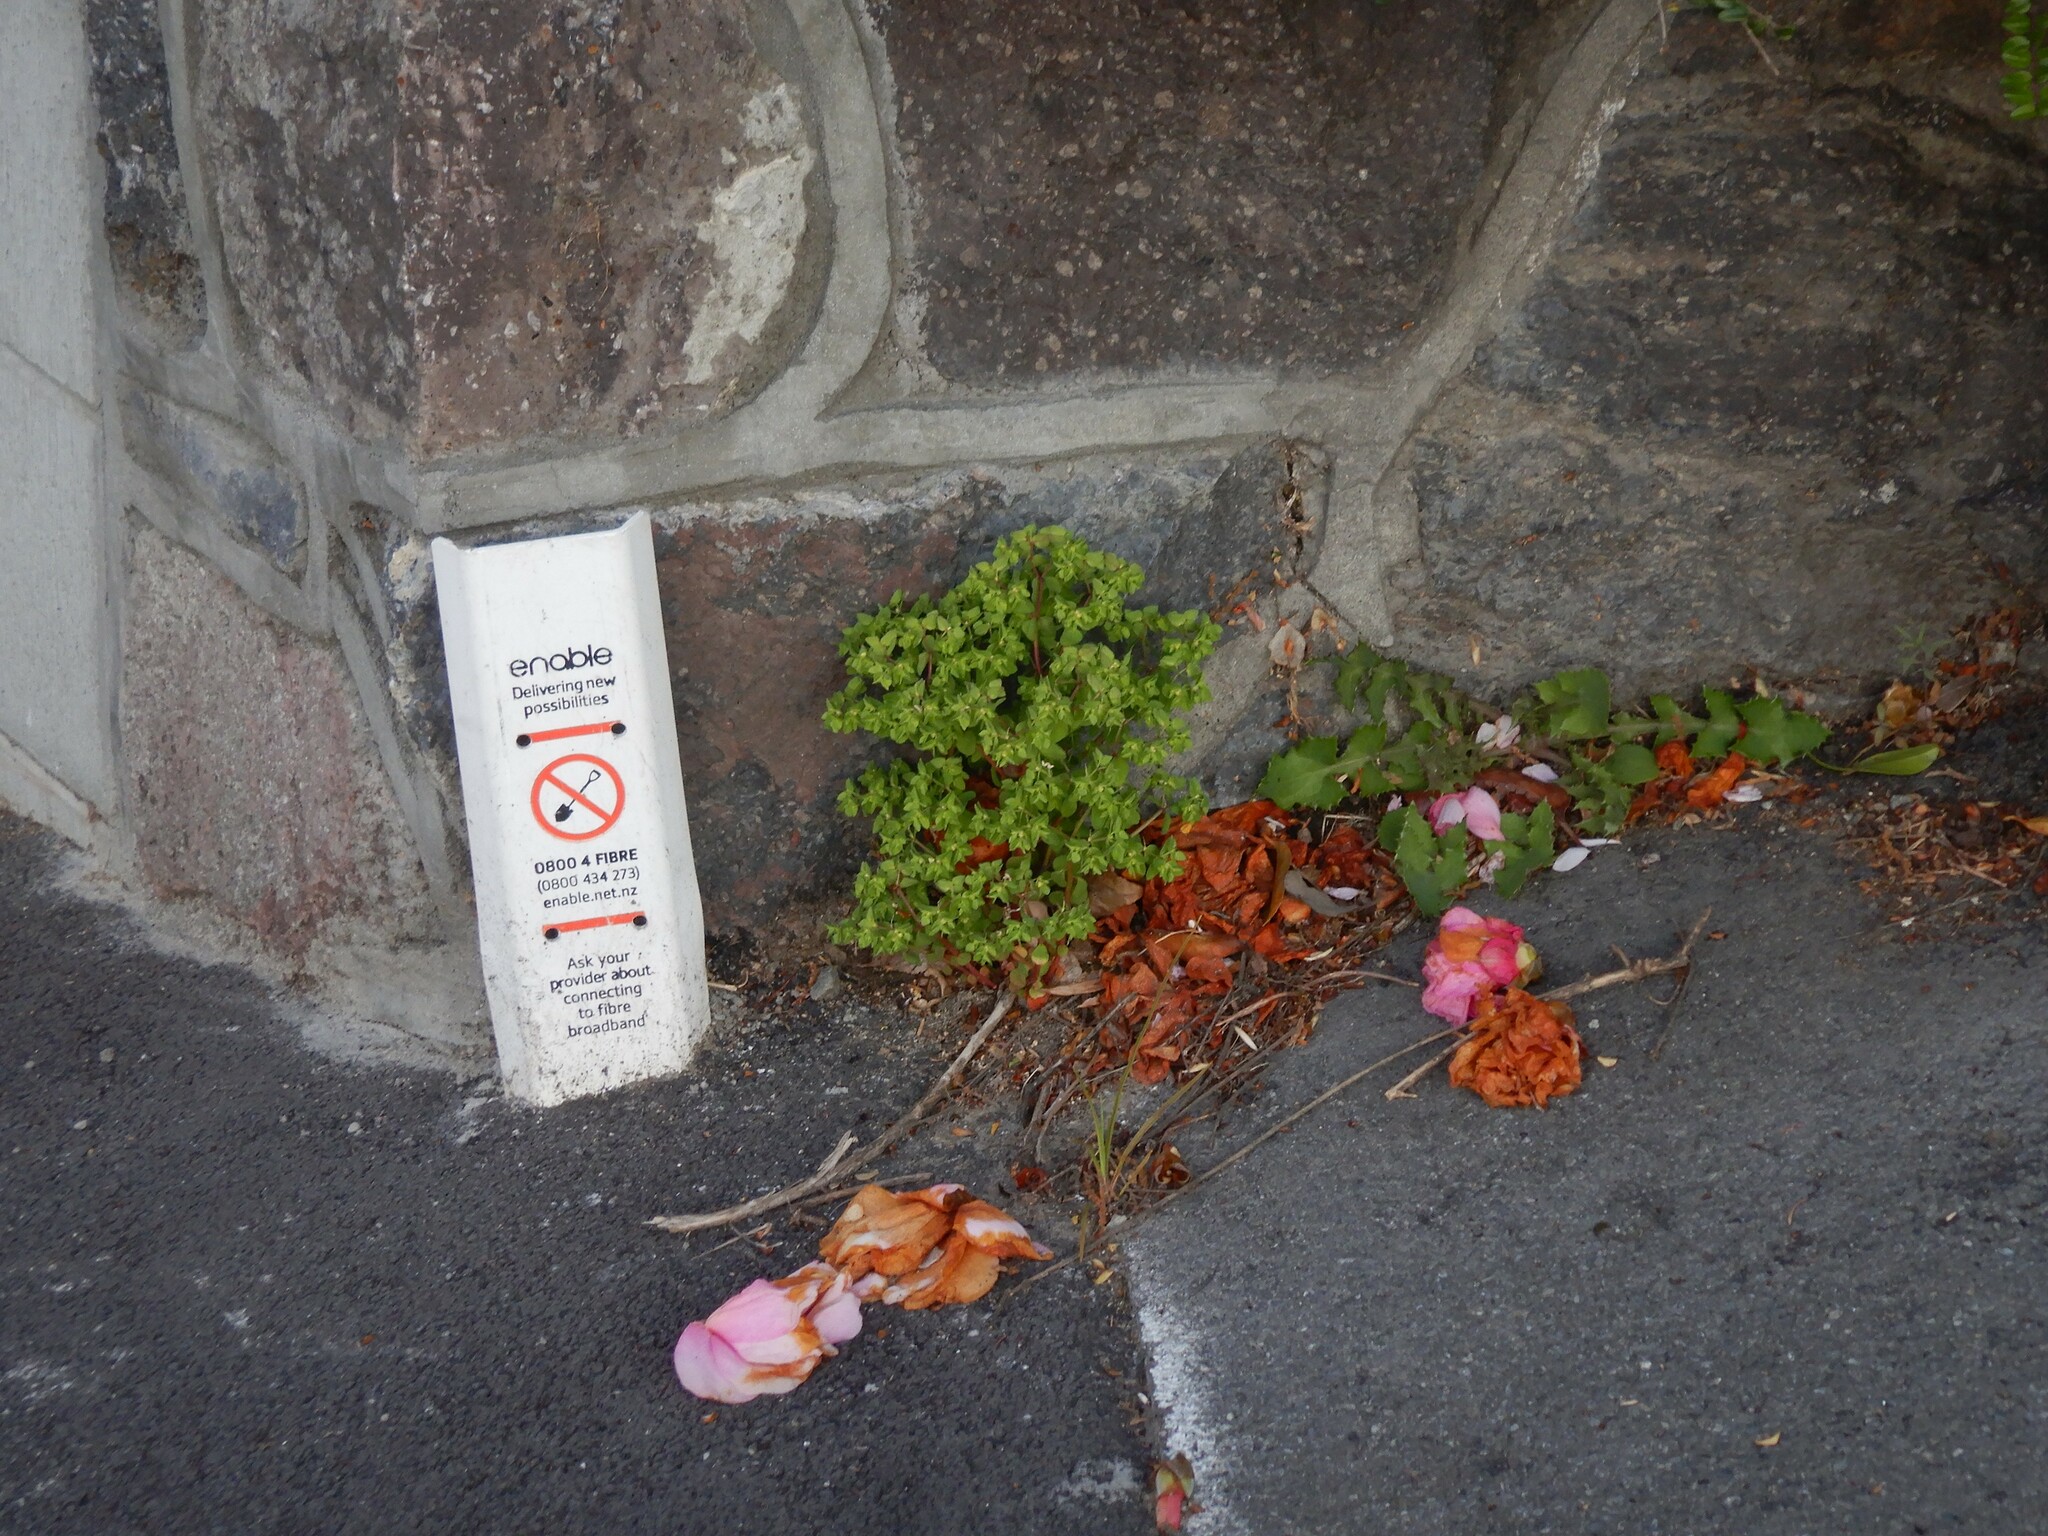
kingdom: Plantae
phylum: Tracheophyta
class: Magnoliopsida
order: Malpighiales
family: Euphorbiaceae
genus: Euphorbia
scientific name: Euphorbia peplus
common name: Petty spurge
